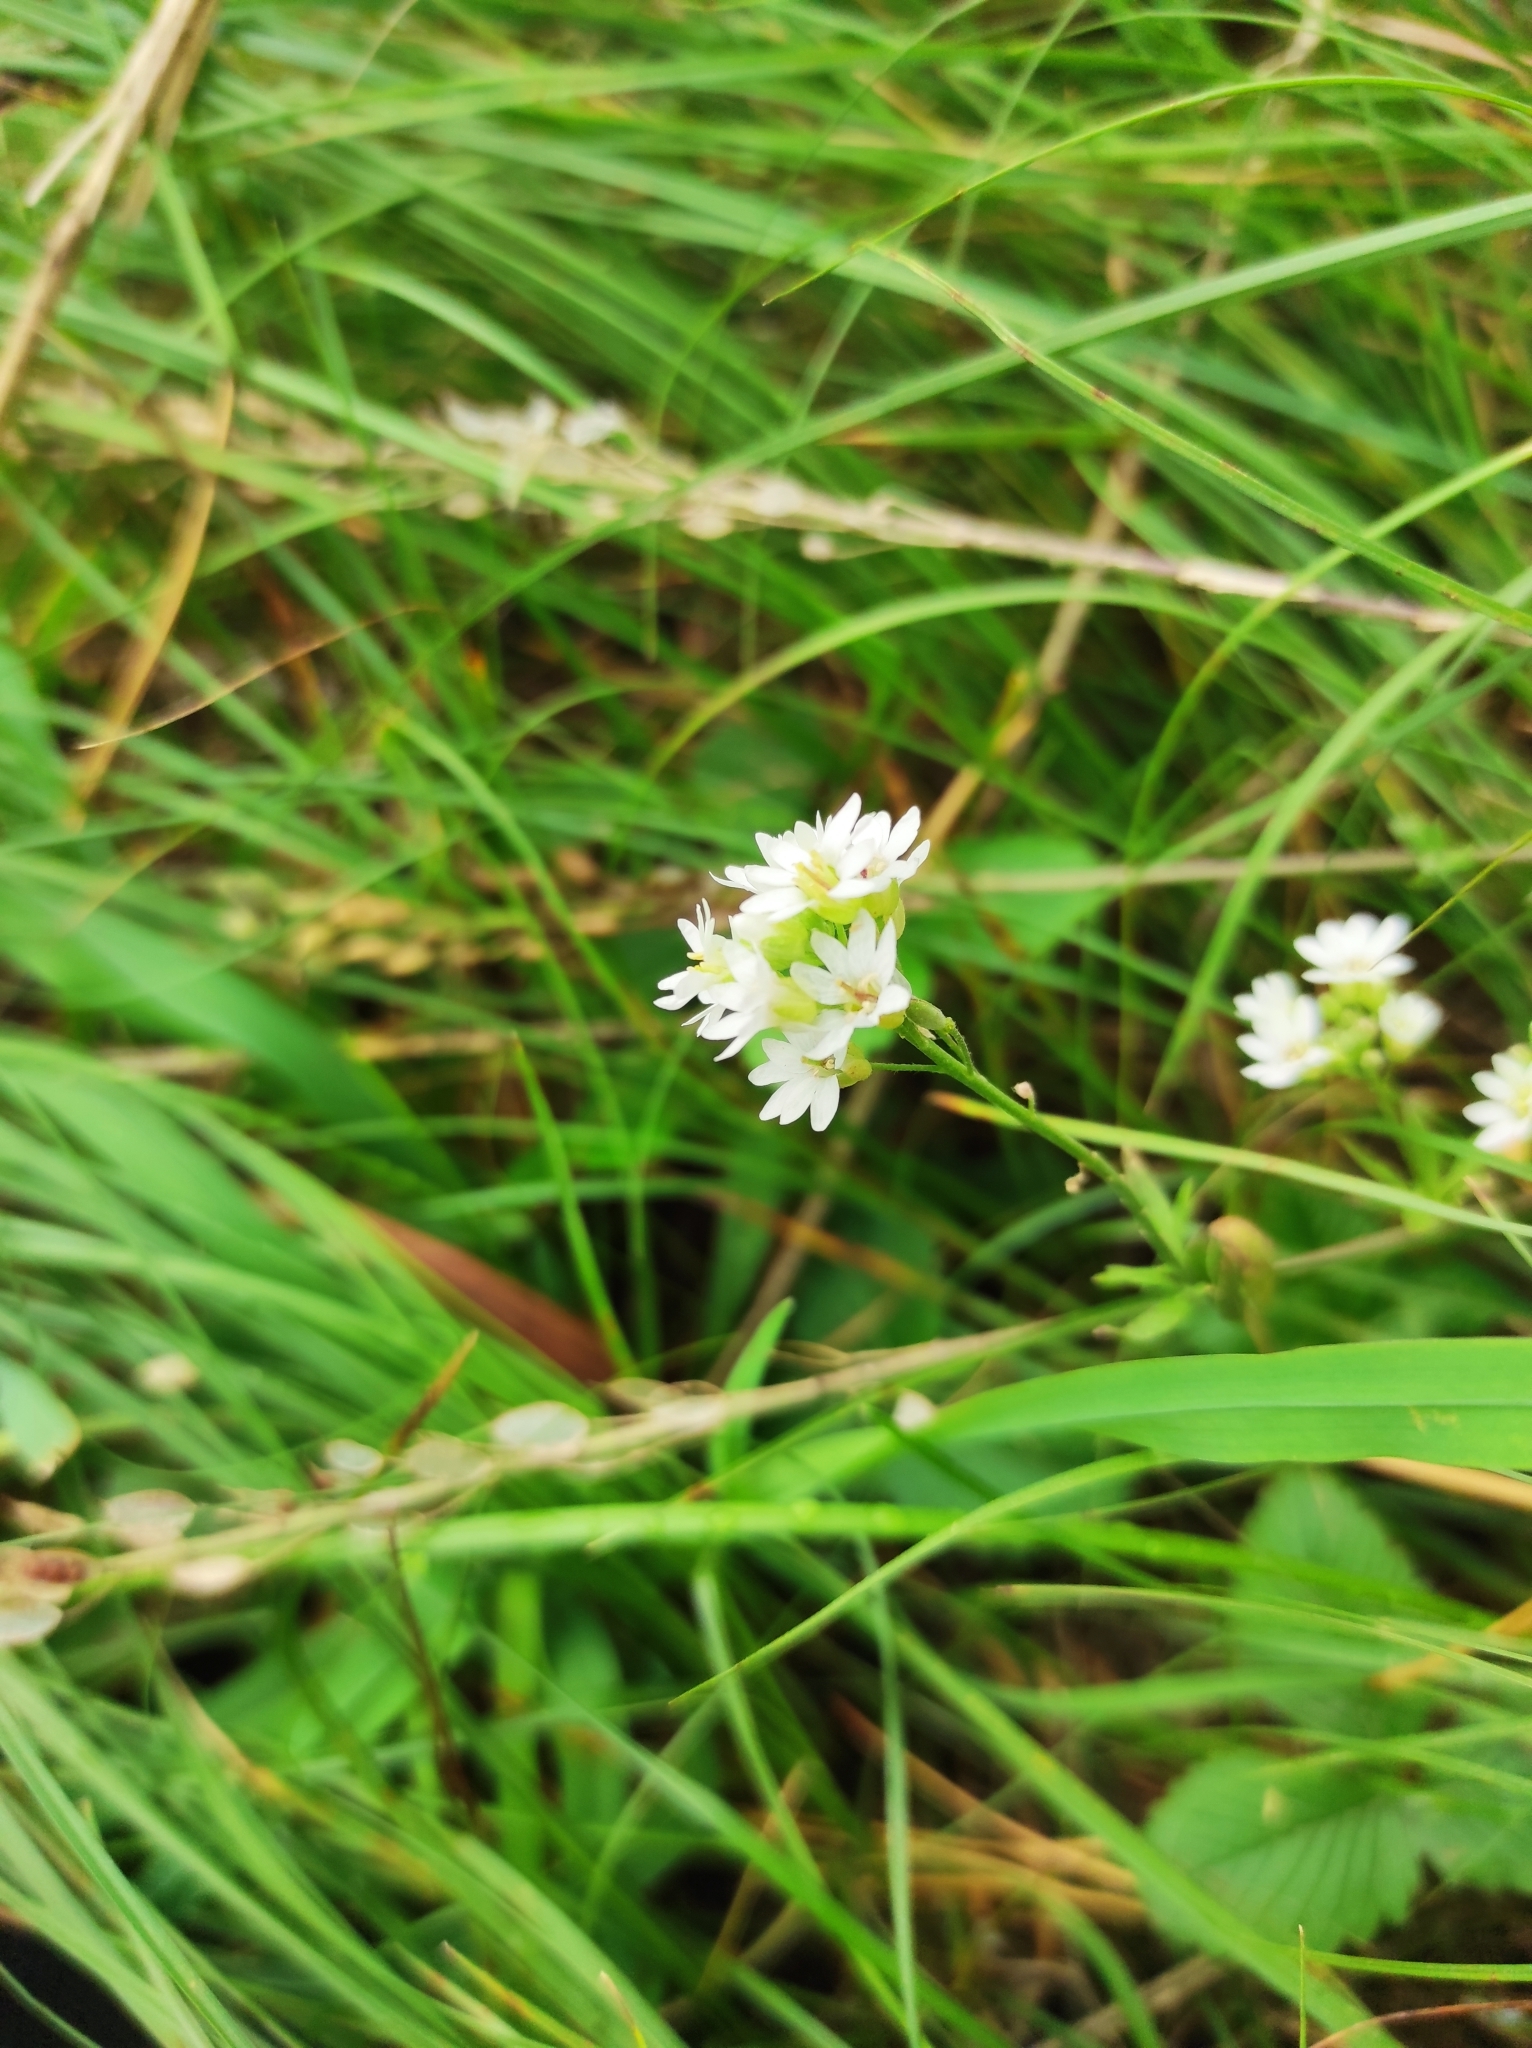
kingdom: Plantae
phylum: Tracheophyta
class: Magnoliopsida
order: Brassicales
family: Brassicaceae
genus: Berteroa
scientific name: Berteroa incana
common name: Hoary alison
